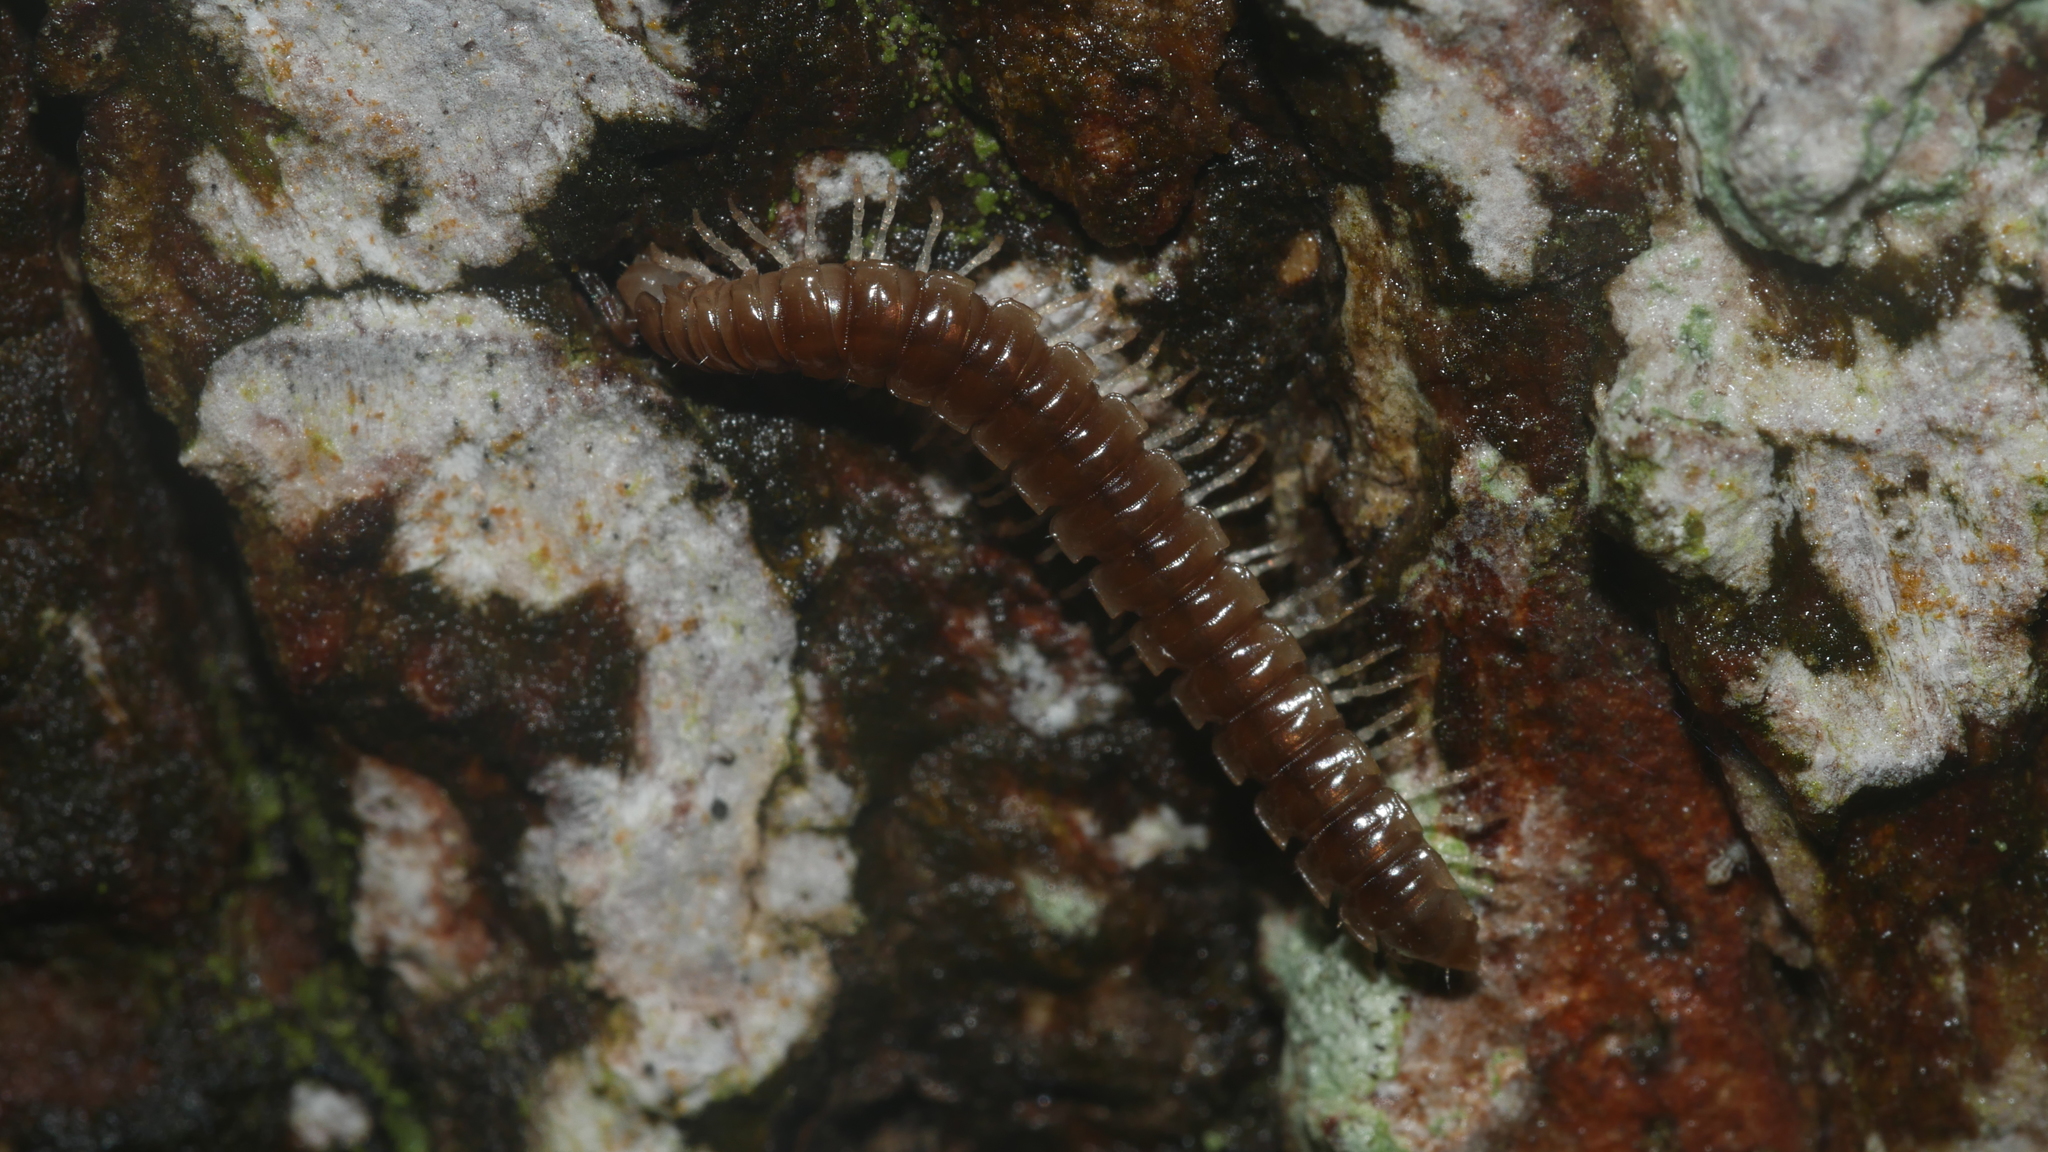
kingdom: Animalia
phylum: Arthropoda
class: Diplopoda
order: Polydesmida
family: Paradoxosomatidae
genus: Oxidus
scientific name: Oxidus gracilis
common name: Greenhouse millipede
